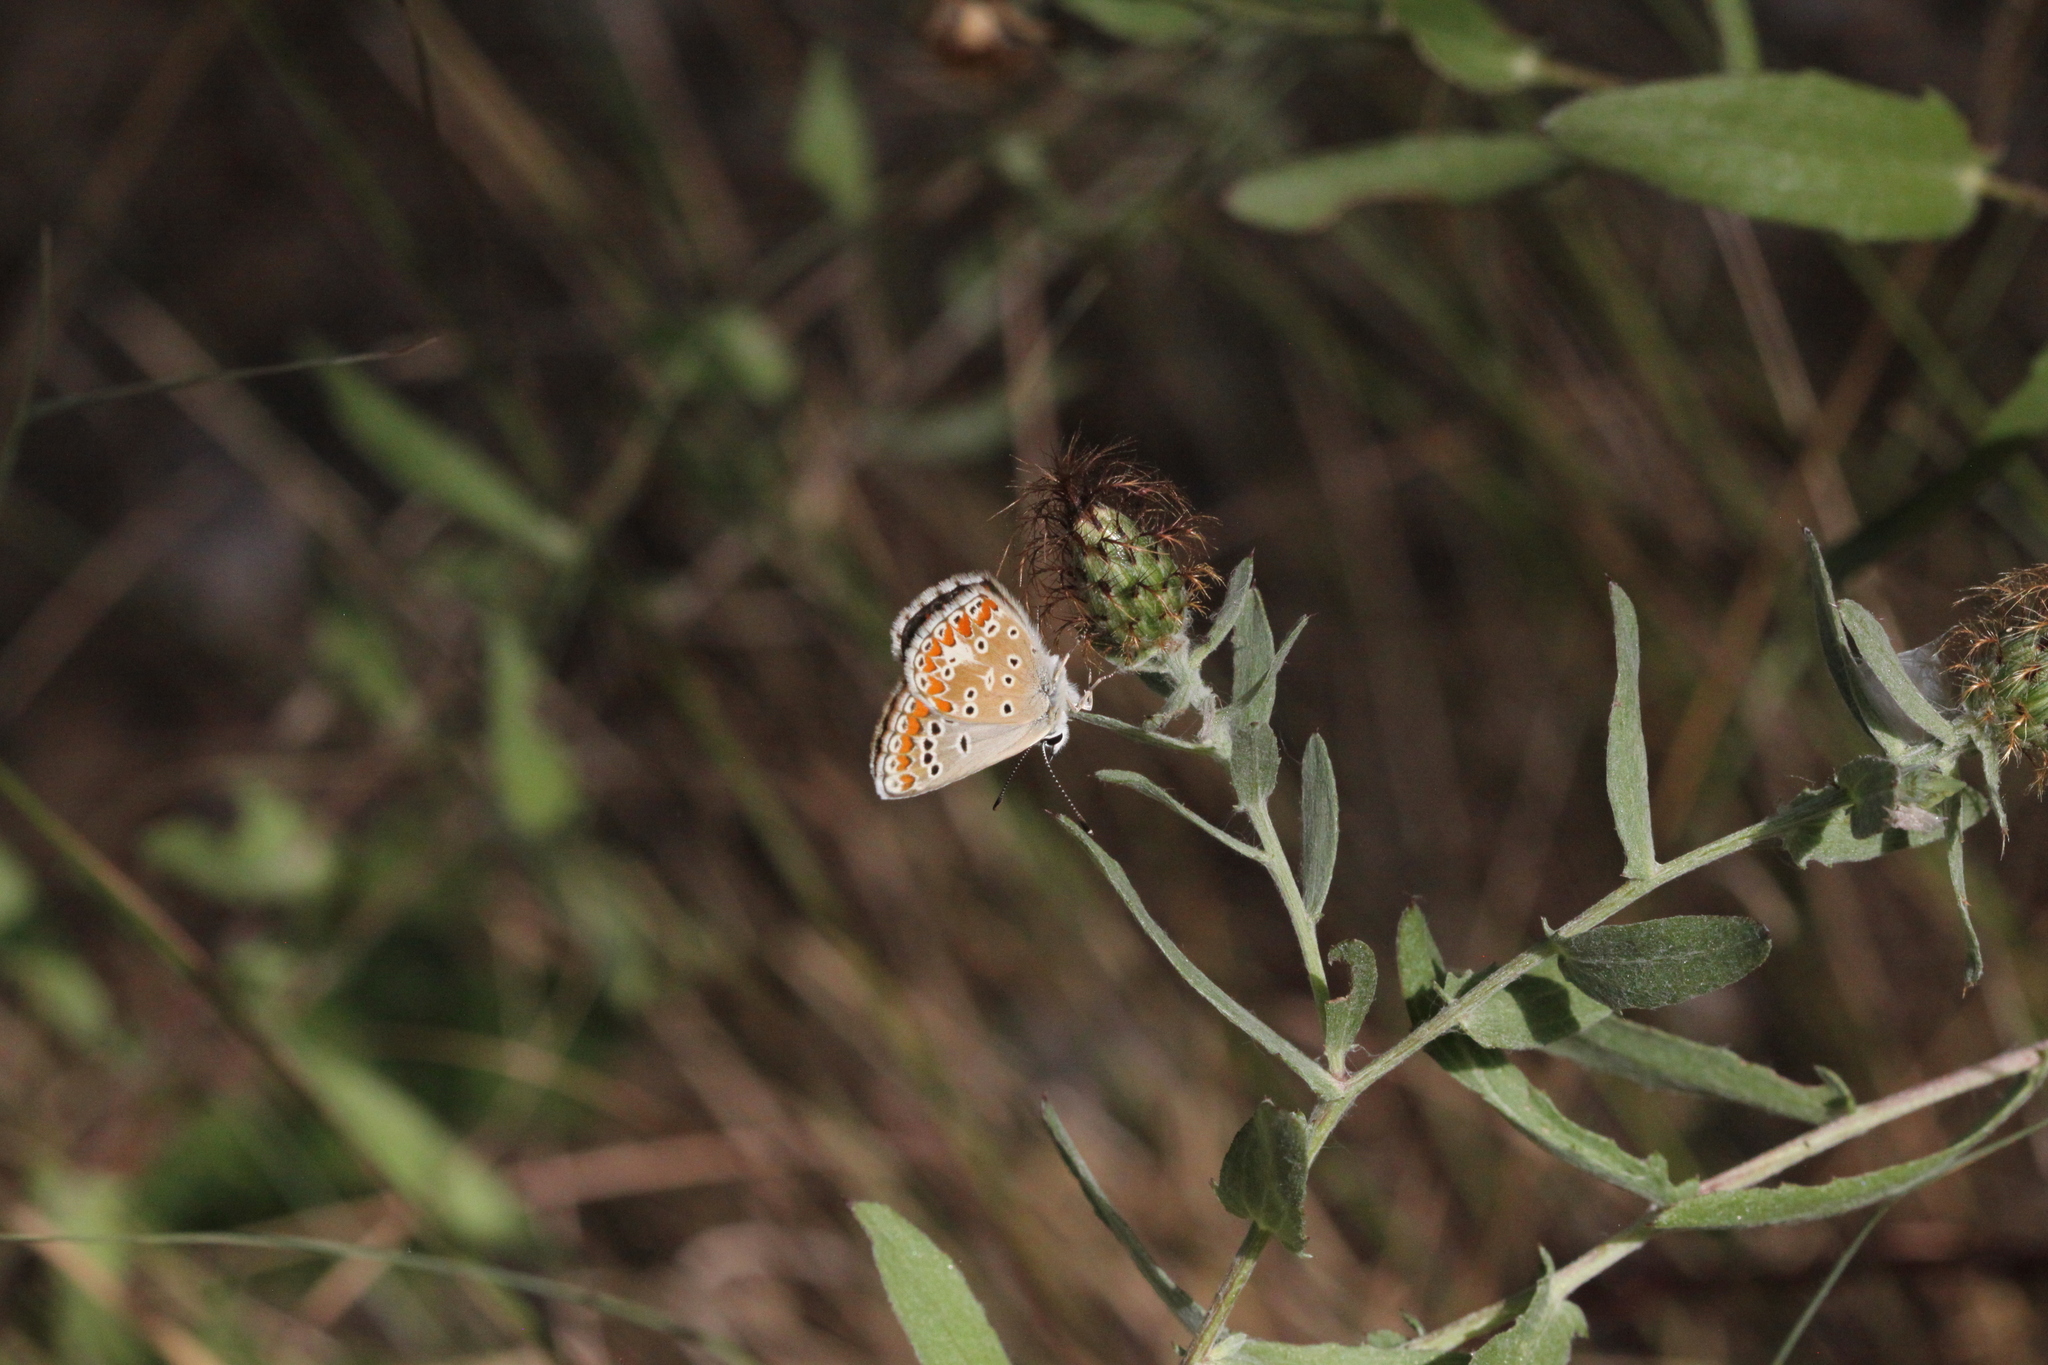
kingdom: Animalia
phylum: Arthropoda
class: Insecta
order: Lepidoptera
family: Lycaenidae
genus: Aricia
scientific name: Aricia agestis
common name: Brown argus
